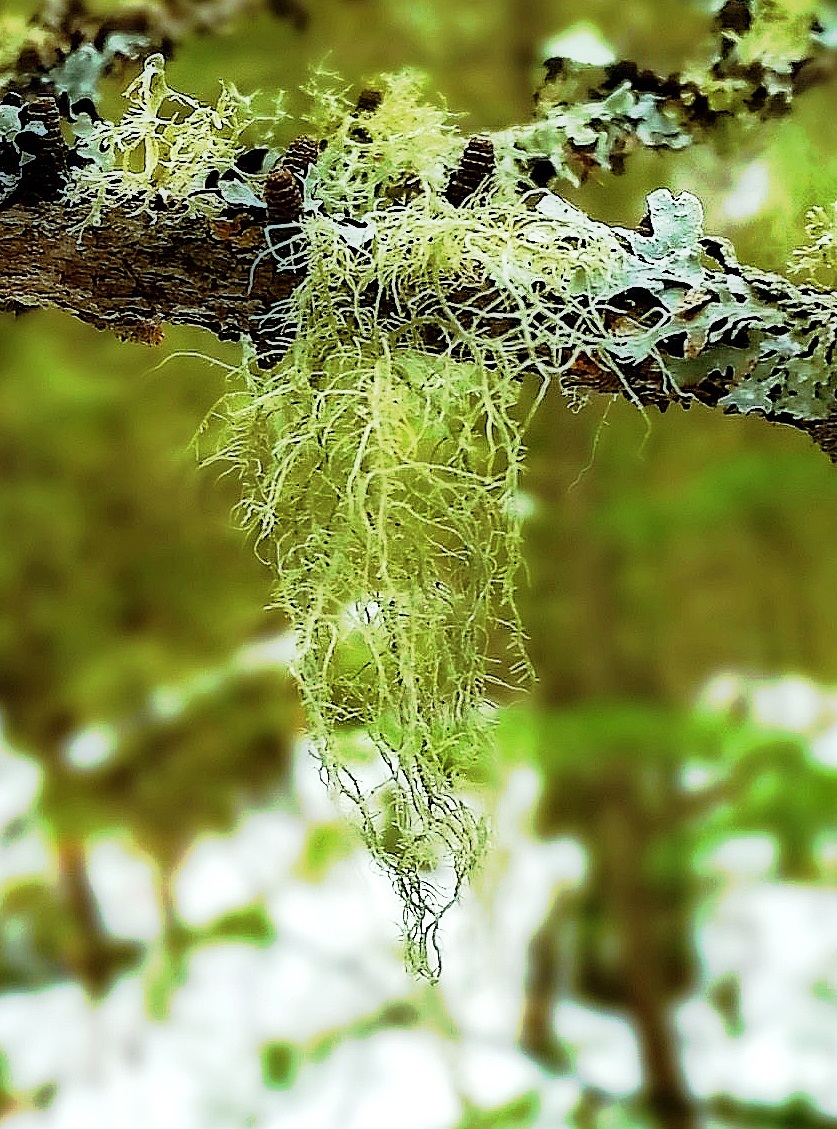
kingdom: Fungi
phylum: Ascomycota
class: Lecanoromycetes
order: Lecanorales
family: Parmeliaceae
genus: Usnea
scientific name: Usnea
